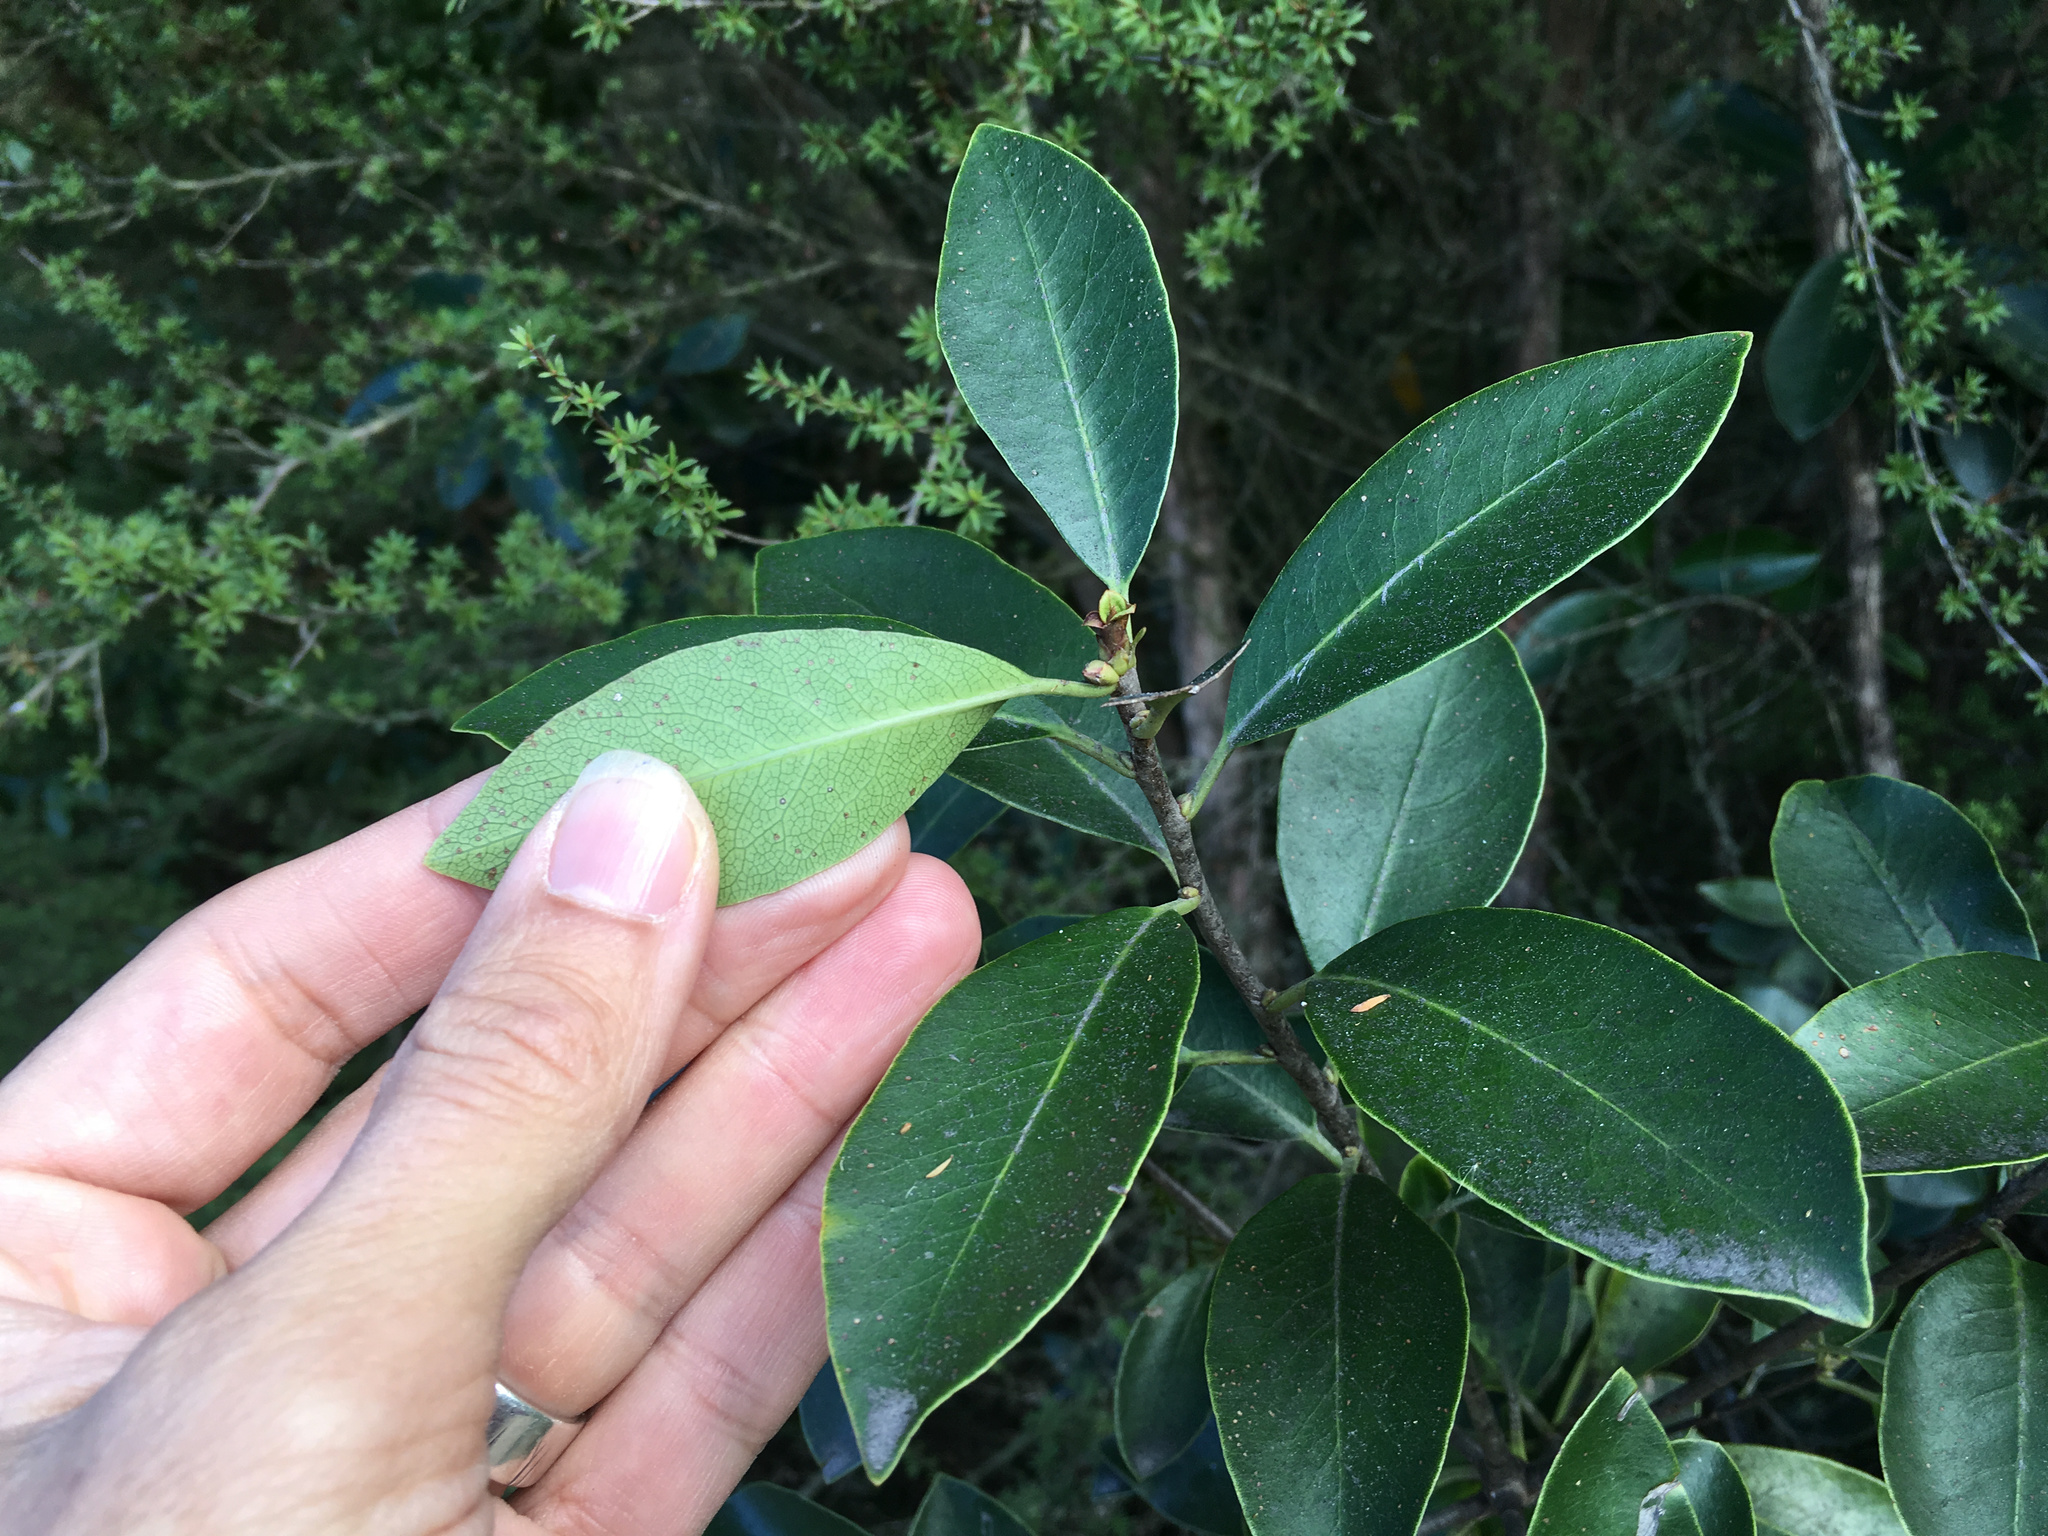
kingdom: Plantae
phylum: Tracheophyta
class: Magnoliopsida
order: Apiales
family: Pittosporaceae
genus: Pittosporum
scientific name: Pittosporum colensoi
